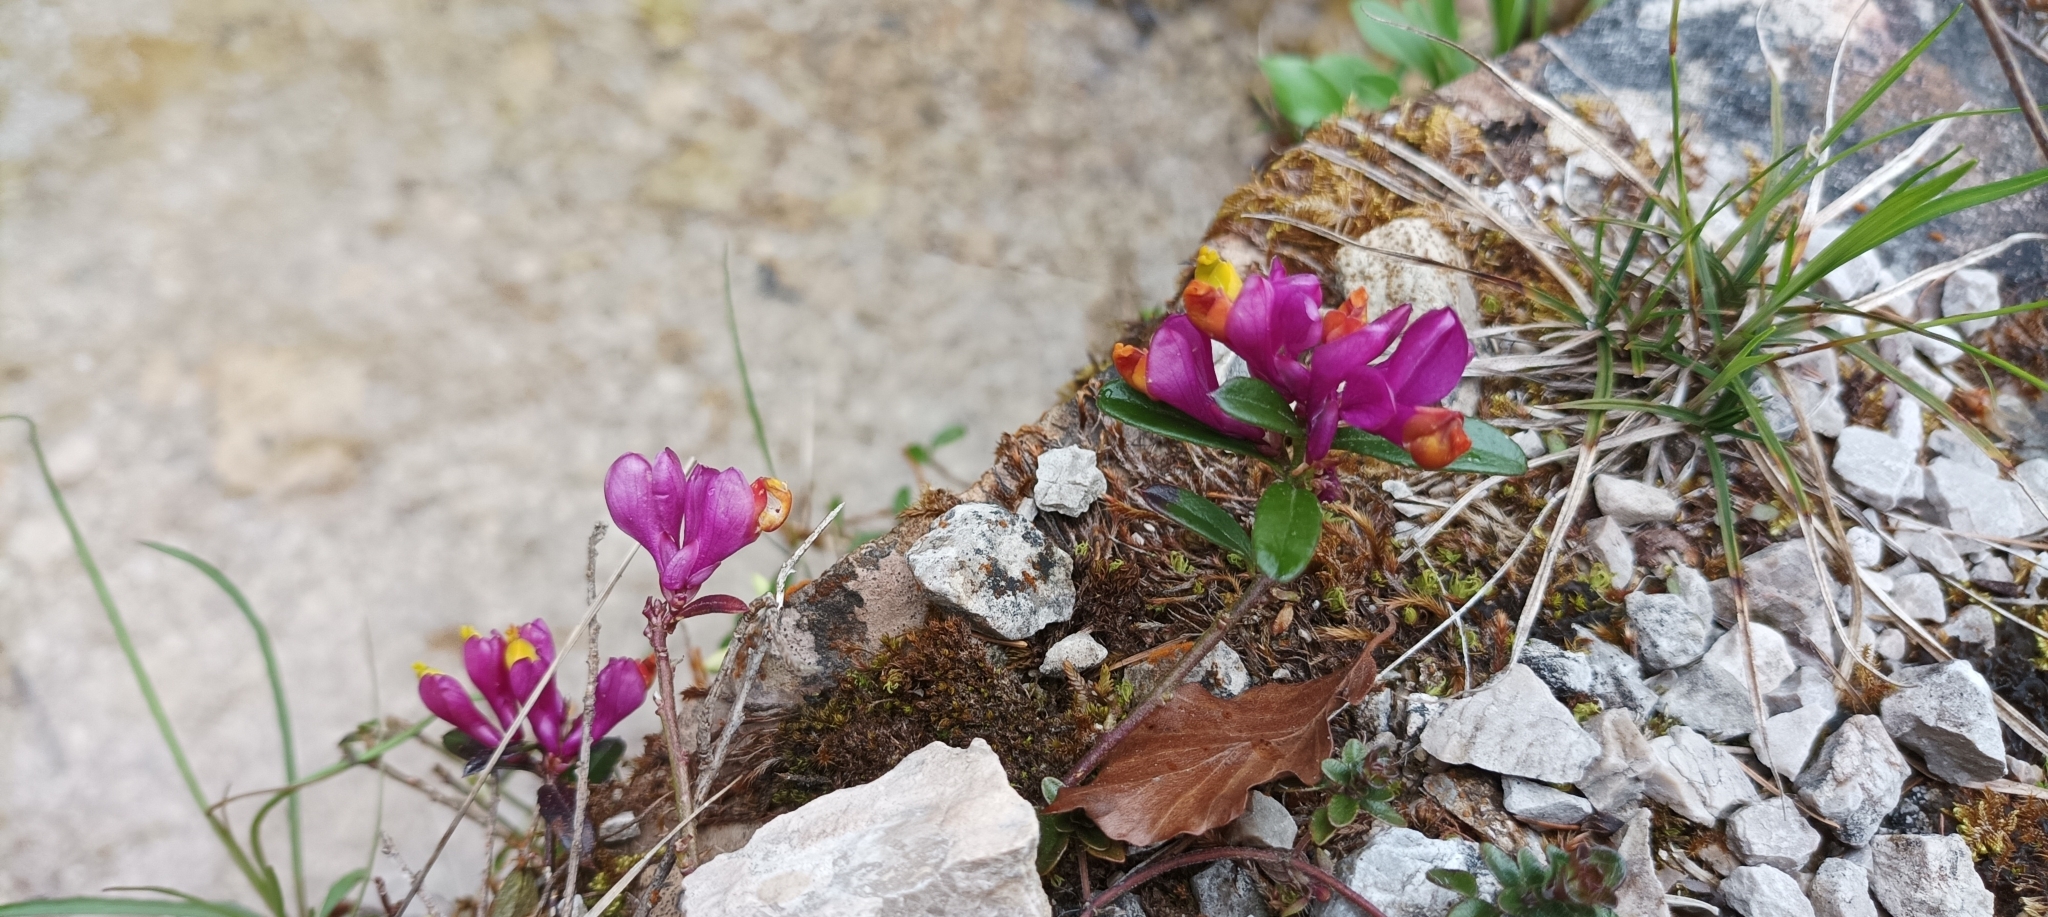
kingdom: Plantae
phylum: Tracheophyta
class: Magnoliopsida
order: Fabales
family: Polygalaceae
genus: Polygaloides
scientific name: Polygaloides chamaebuxus
